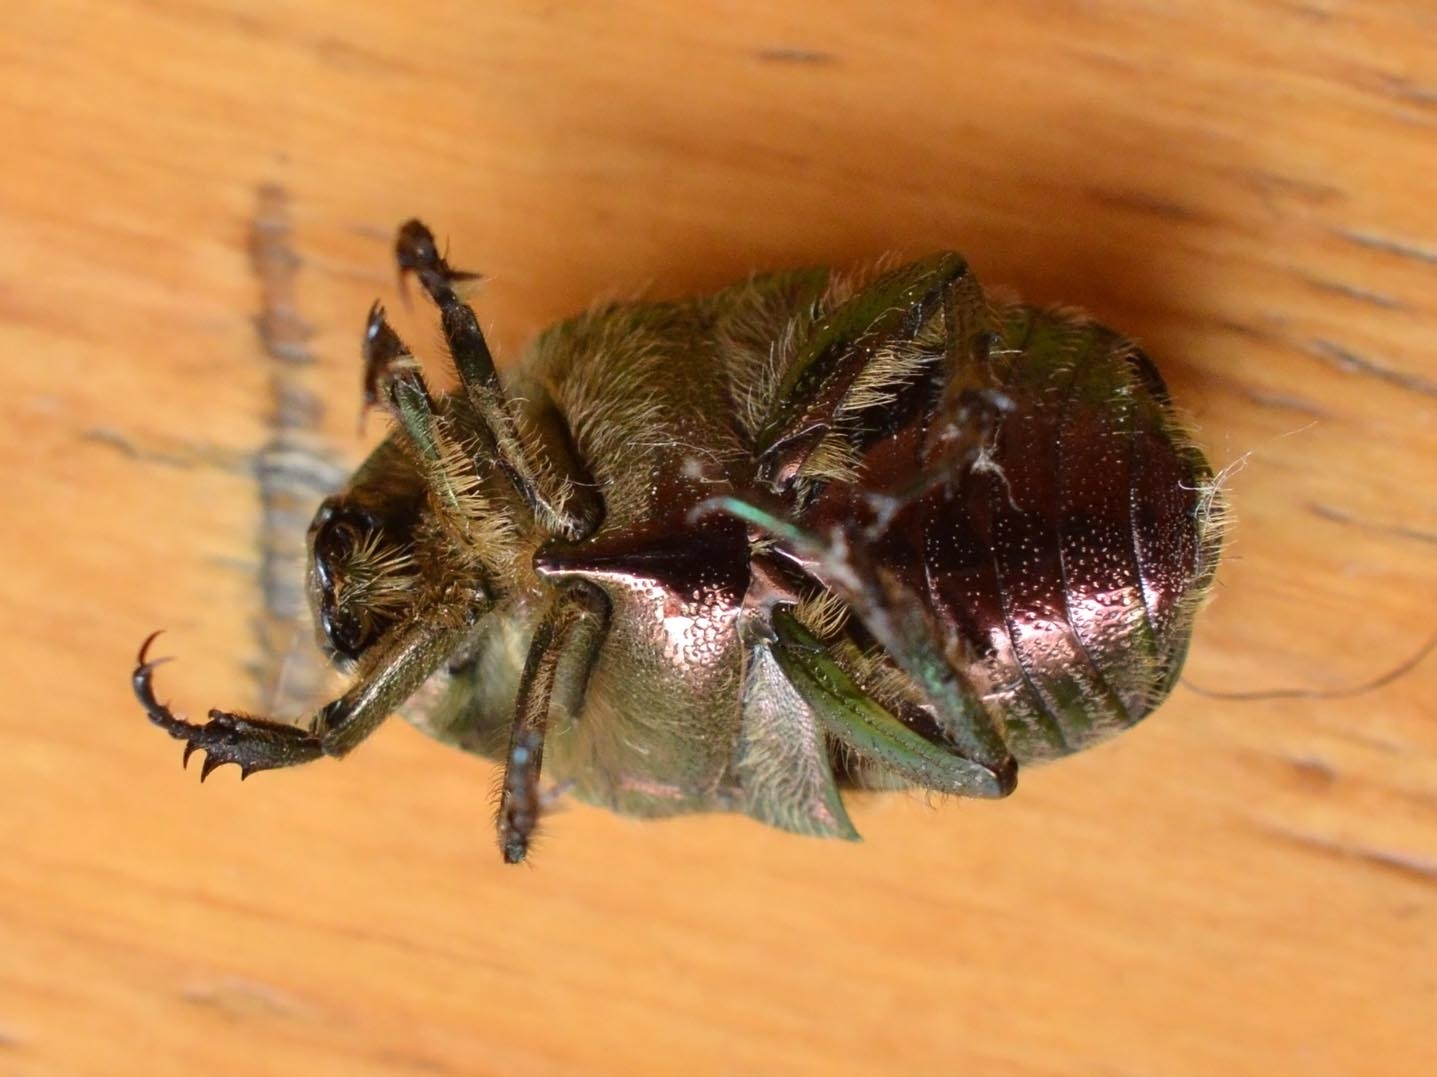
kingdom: Animalia
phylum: Arthropoda
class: Insecta
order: Coleoptera
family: Scarabaeidae
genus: Cetonia
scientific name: Cetonia aurata
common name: Rose chafer
